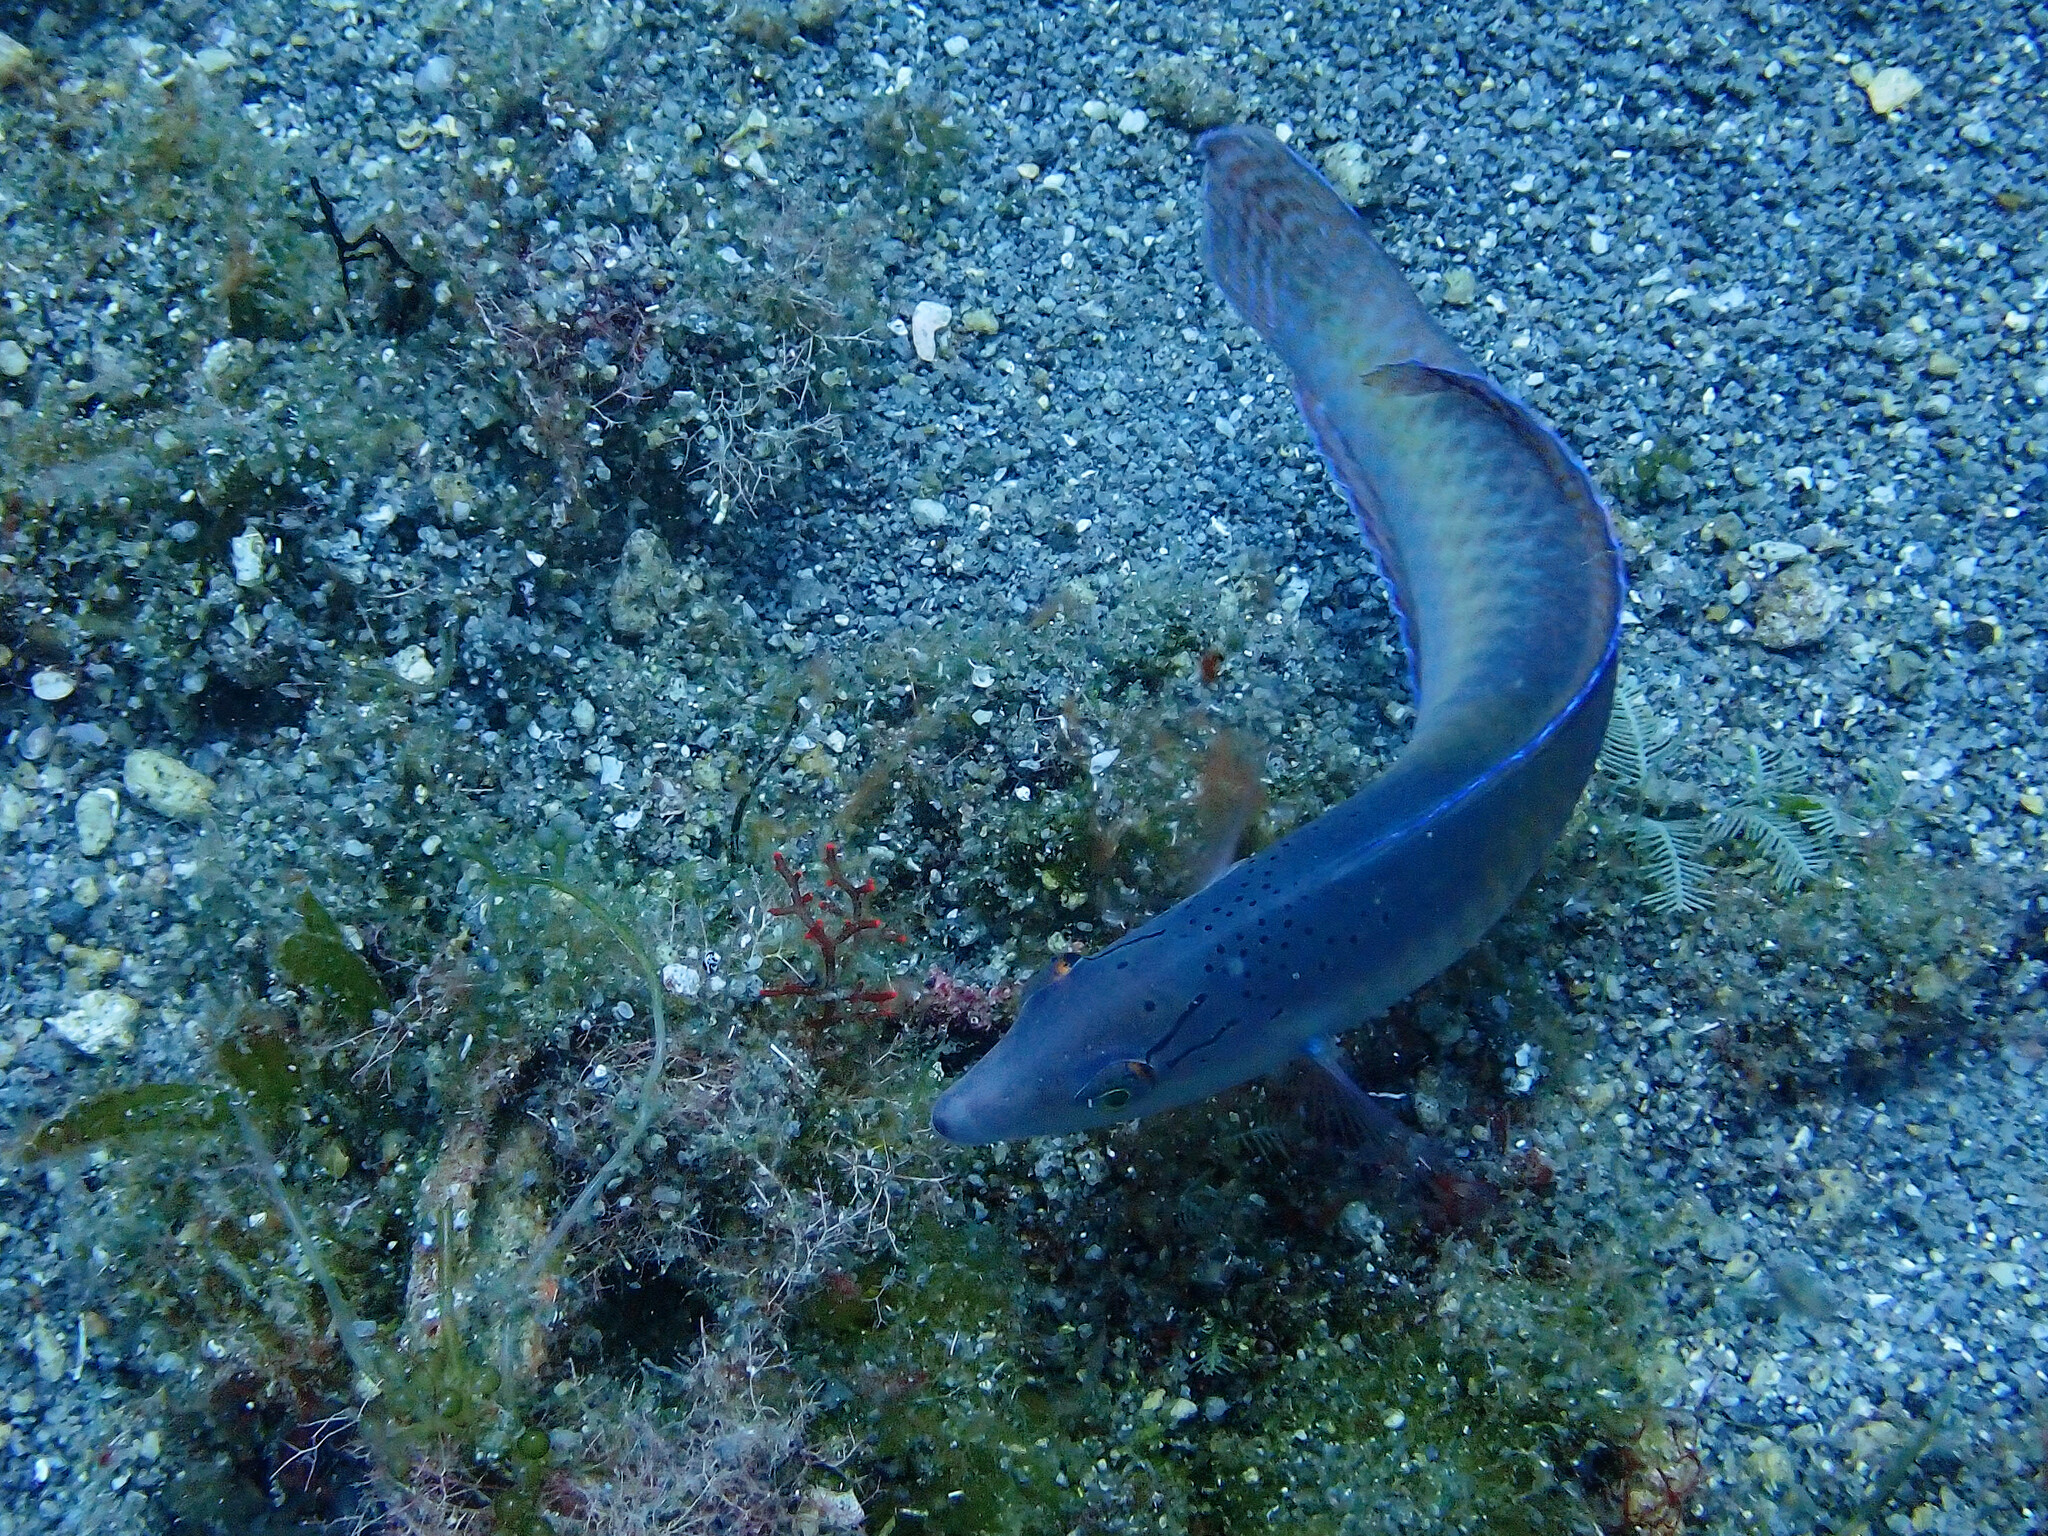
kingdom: Animalia
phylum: Chordata
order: Perciformes
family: Labridae
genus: Halichoeres
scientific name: Halichoeres garnoti
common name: Yellowhead wrasse
